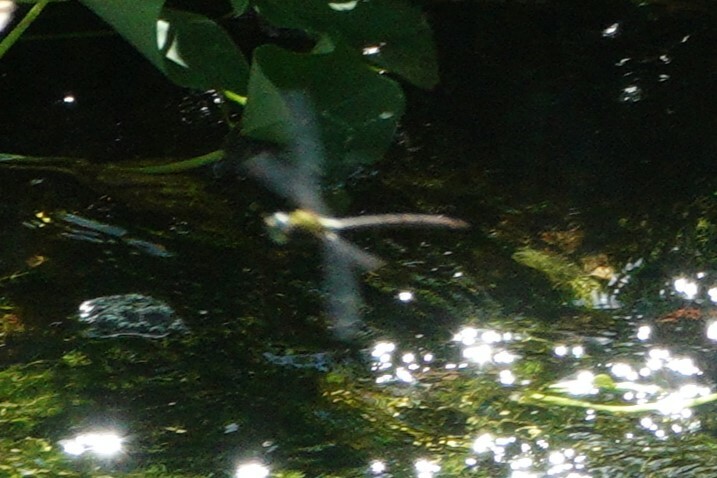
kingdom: Animalia
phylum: Arthropoda
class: Insecta
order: Odonata
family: Aeshnidae
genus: Coryphaeschna
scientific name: Coryphaeschna adnexa
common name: Blue-faced darner
